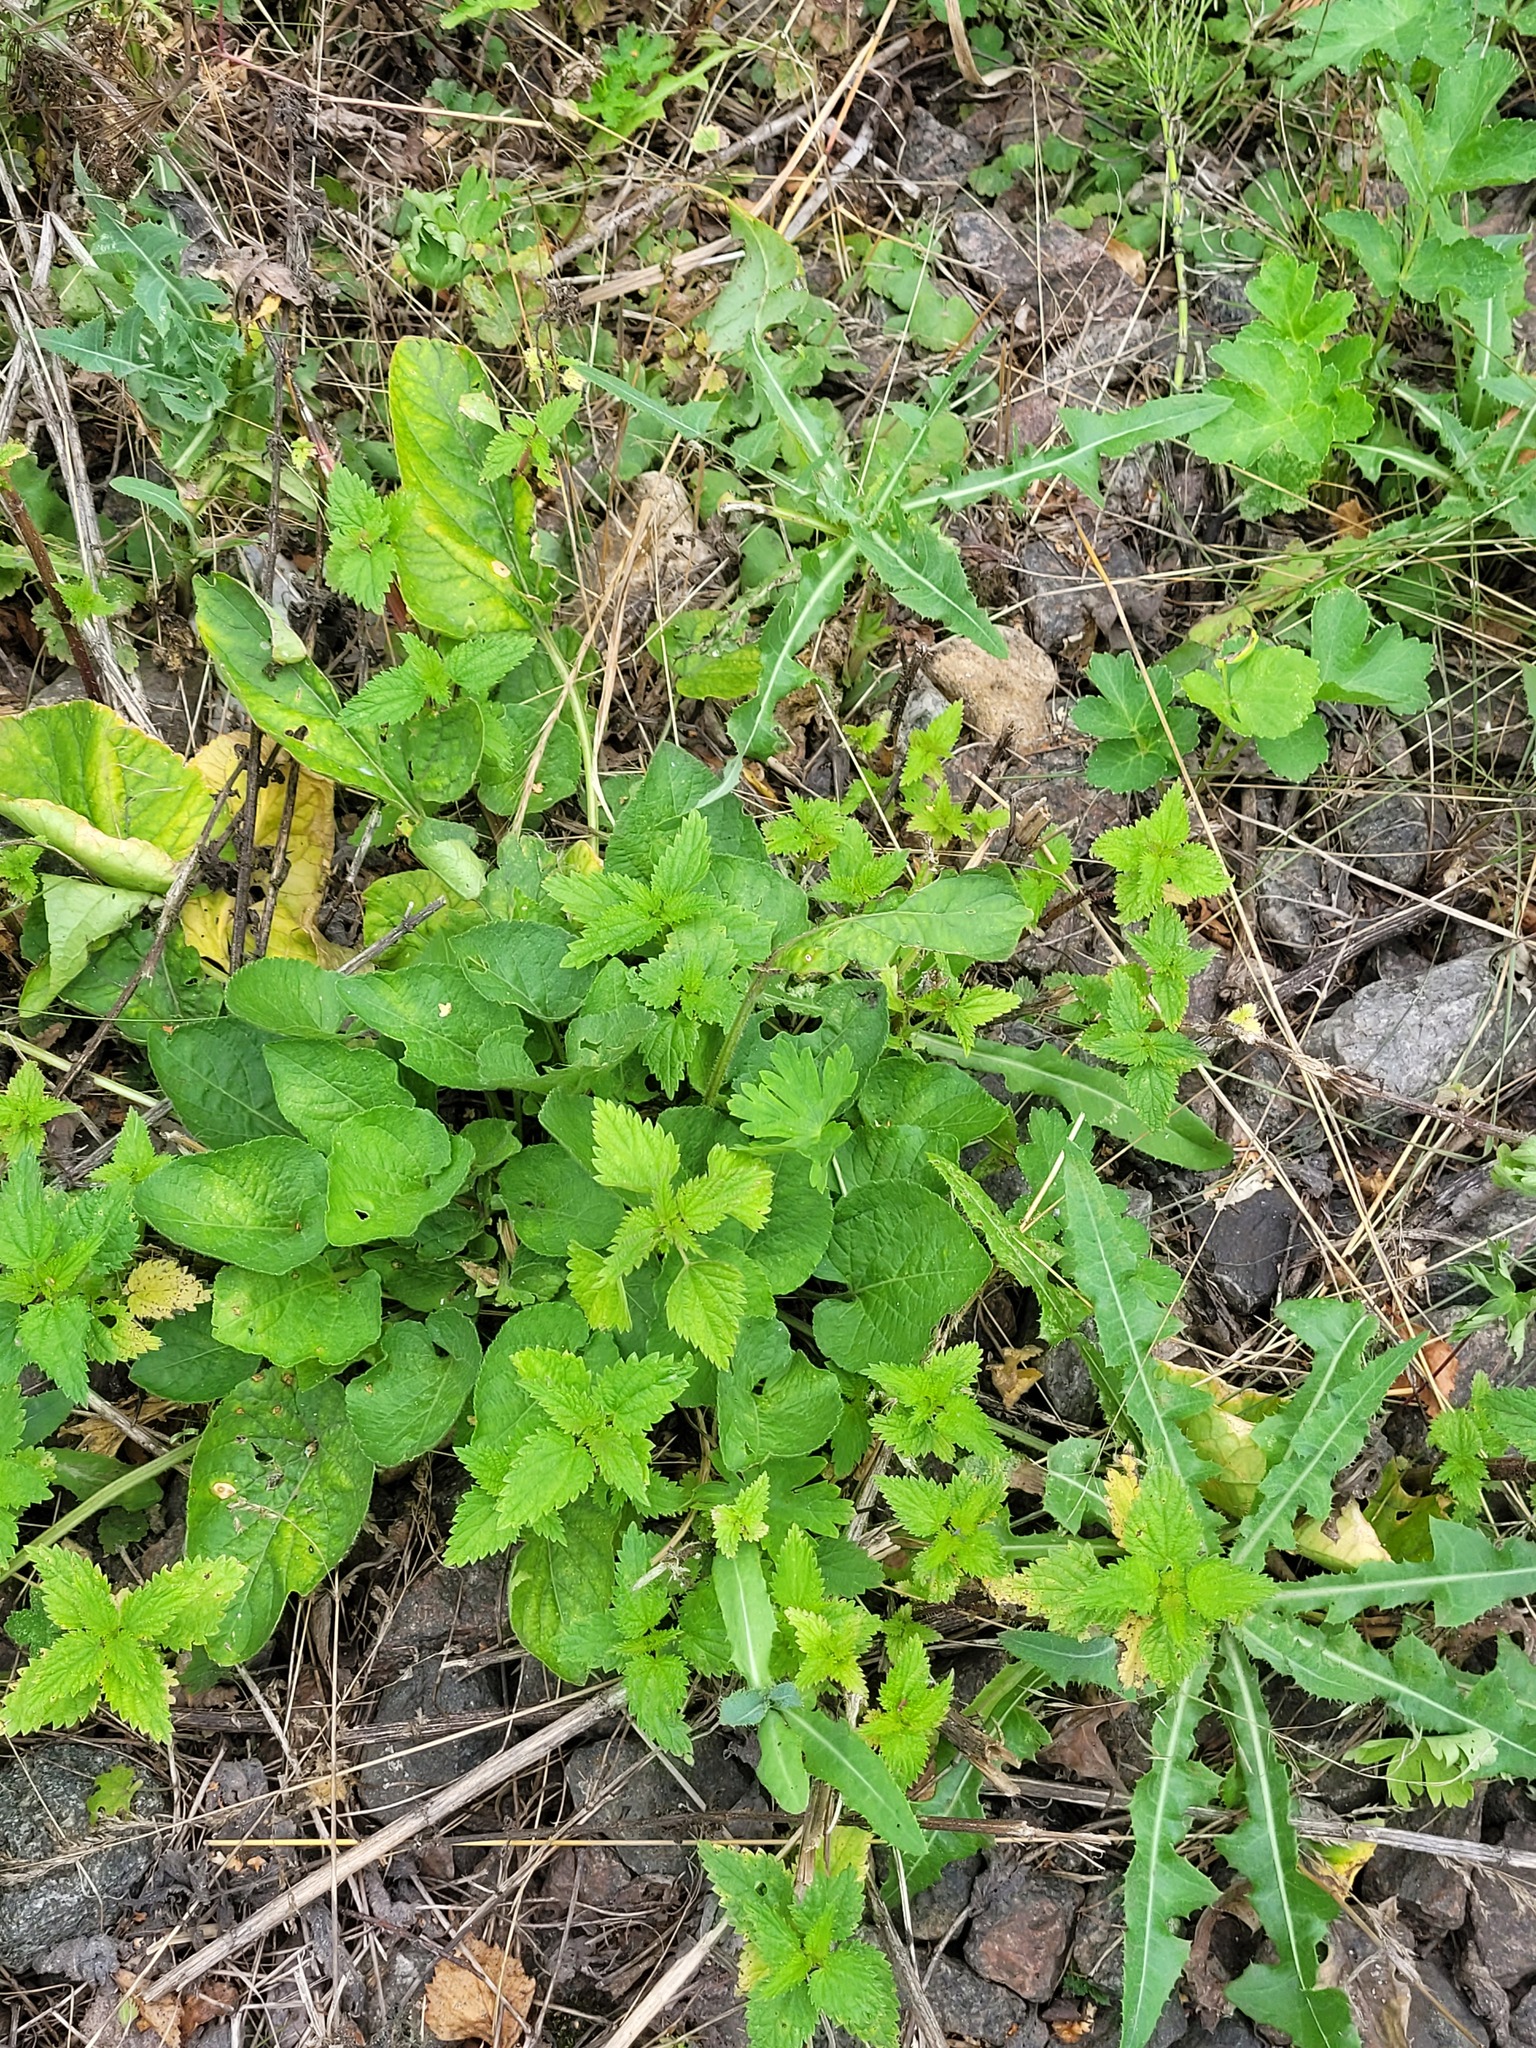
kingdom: Plantae
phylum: Tracheophyta
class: Magnoliopsida
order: Malpighiales
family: Violaceae
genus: Viola
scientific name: Viola hirta
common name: Hairy violet
